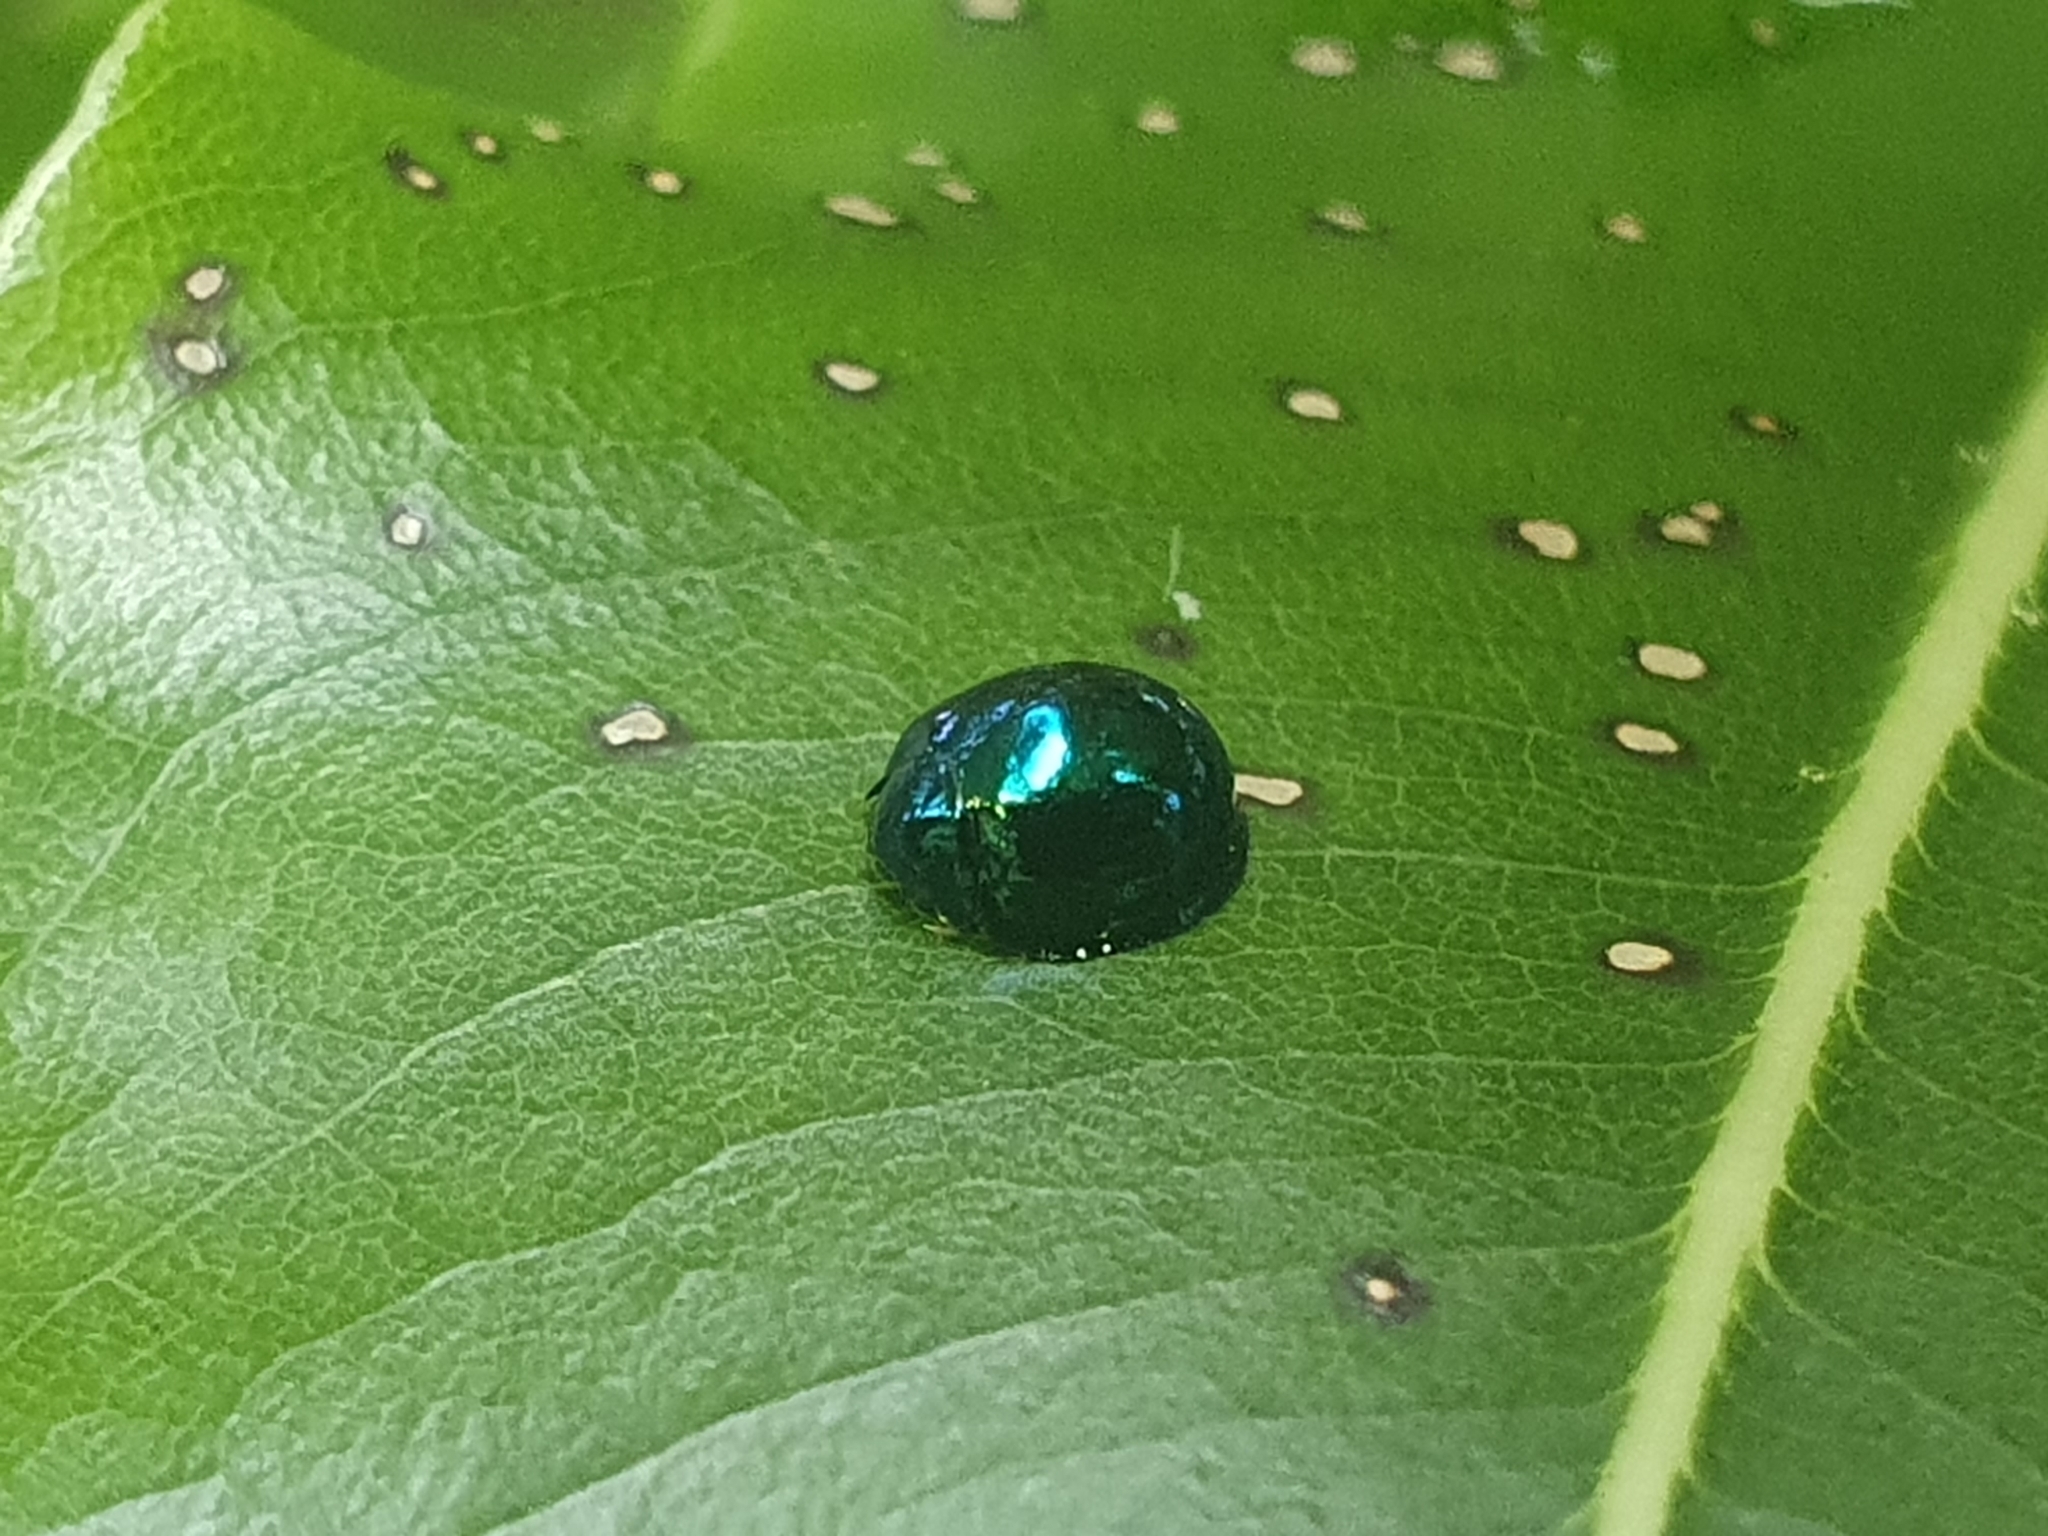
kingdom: Animalia
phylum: Arthropoda
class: Insecta
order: Coleoptera
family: Coccinellidae
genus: Halmus
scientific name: Halmus chalybeus
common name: Steel blue ladybird beetle
